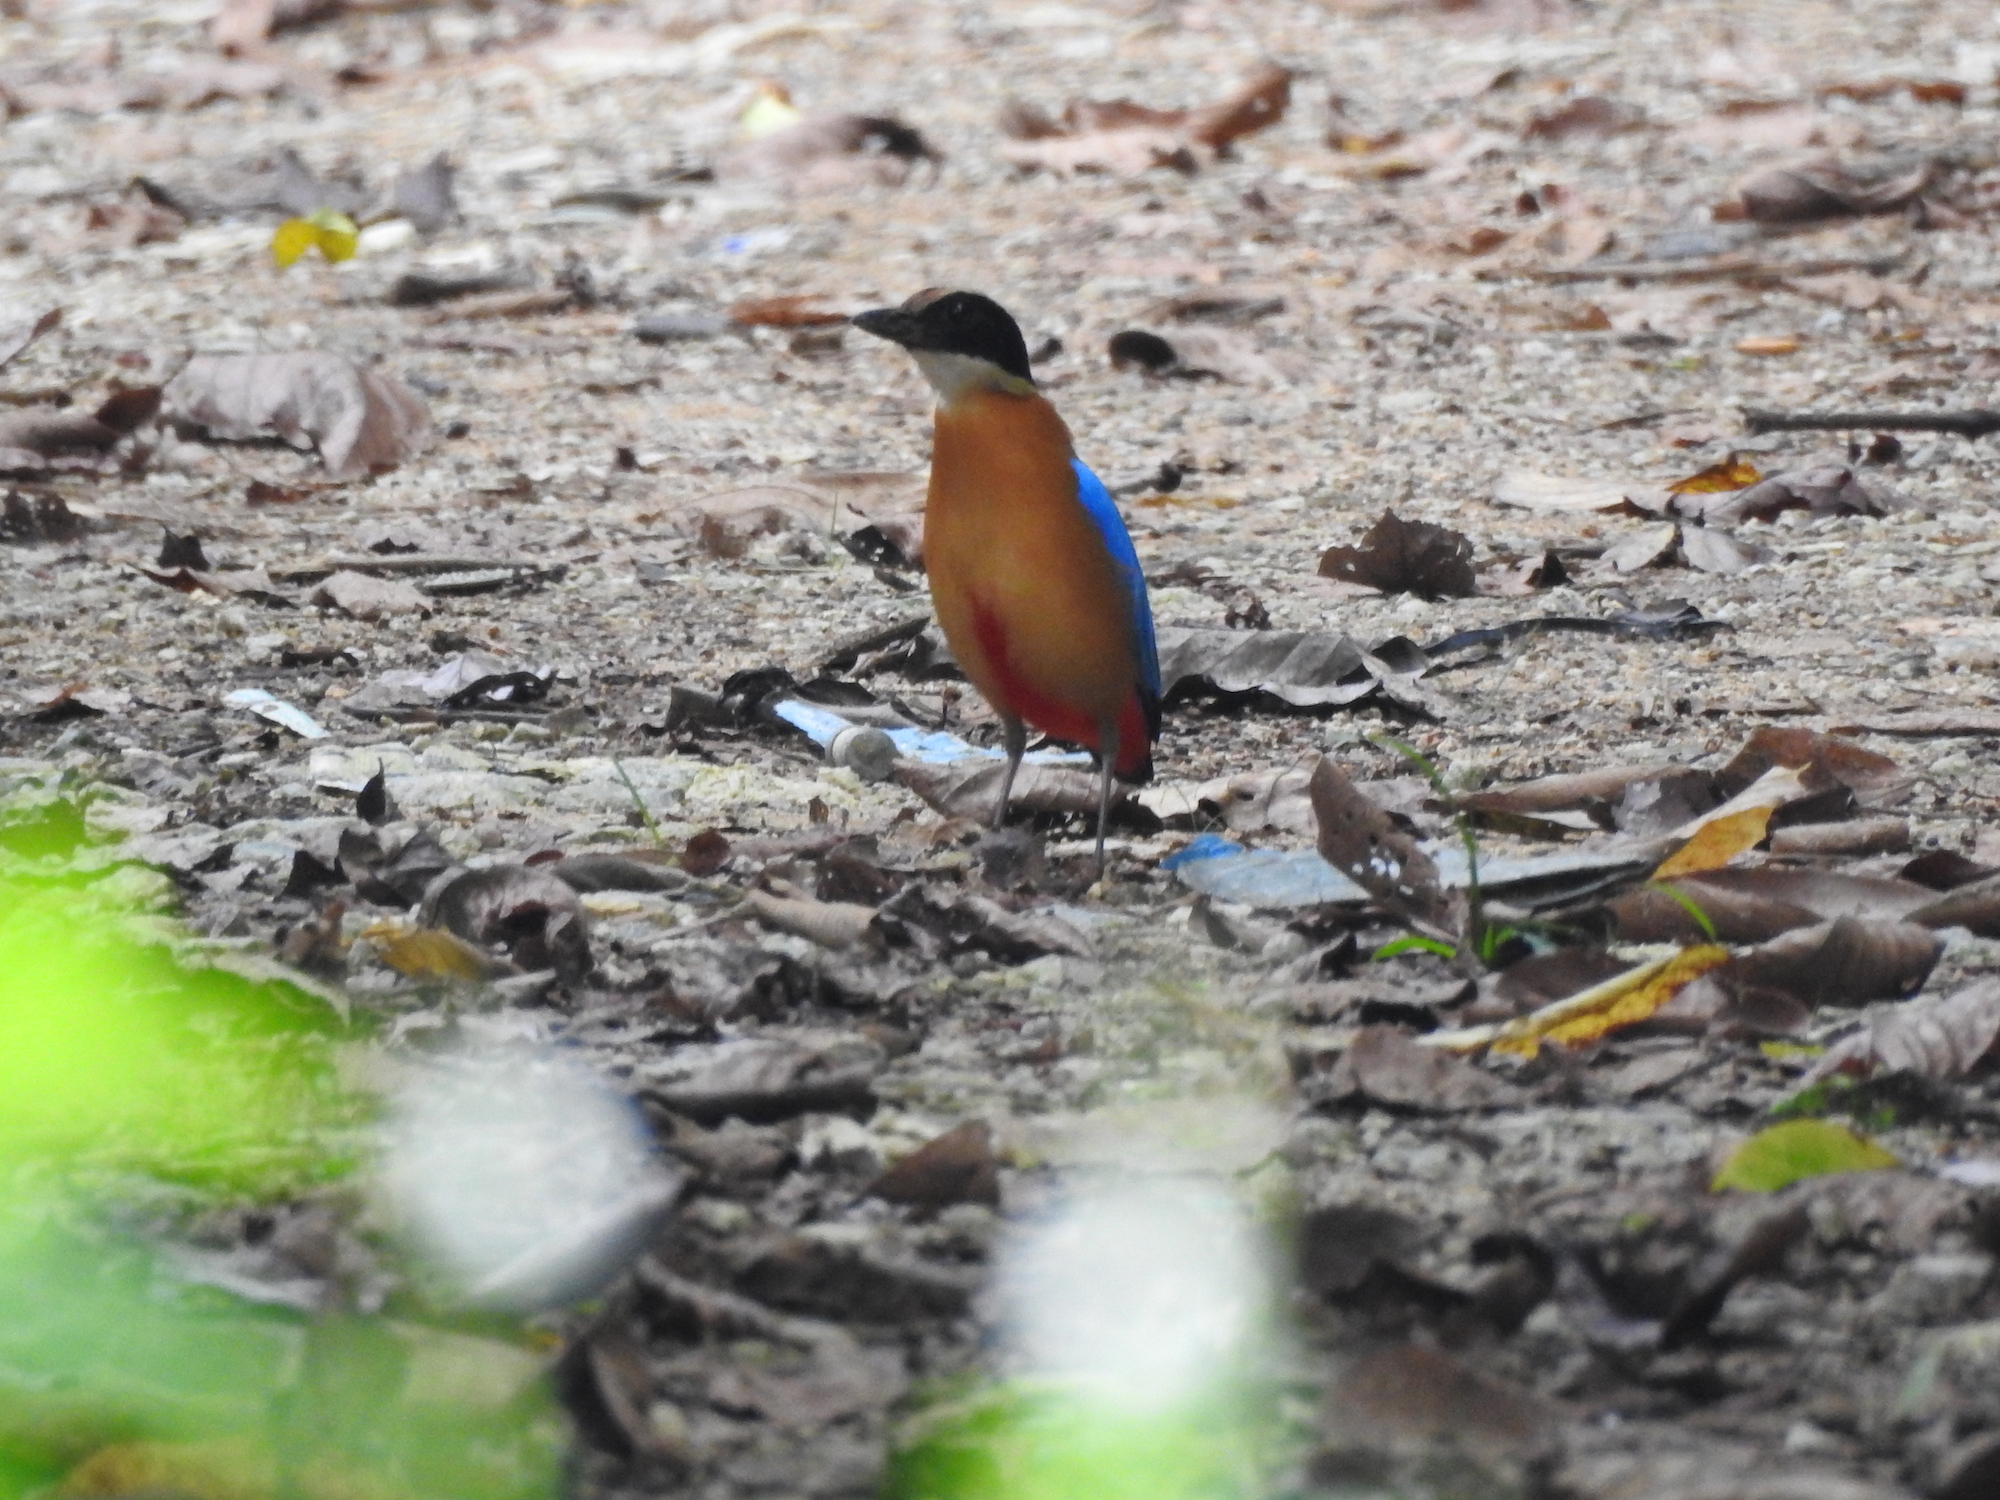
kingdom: Animalia
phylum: Chordata
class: Aves
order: Passeriformes
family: Pittidae
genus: Pitta
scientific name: Pitta moluccensis
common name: Blue-winged pitta
